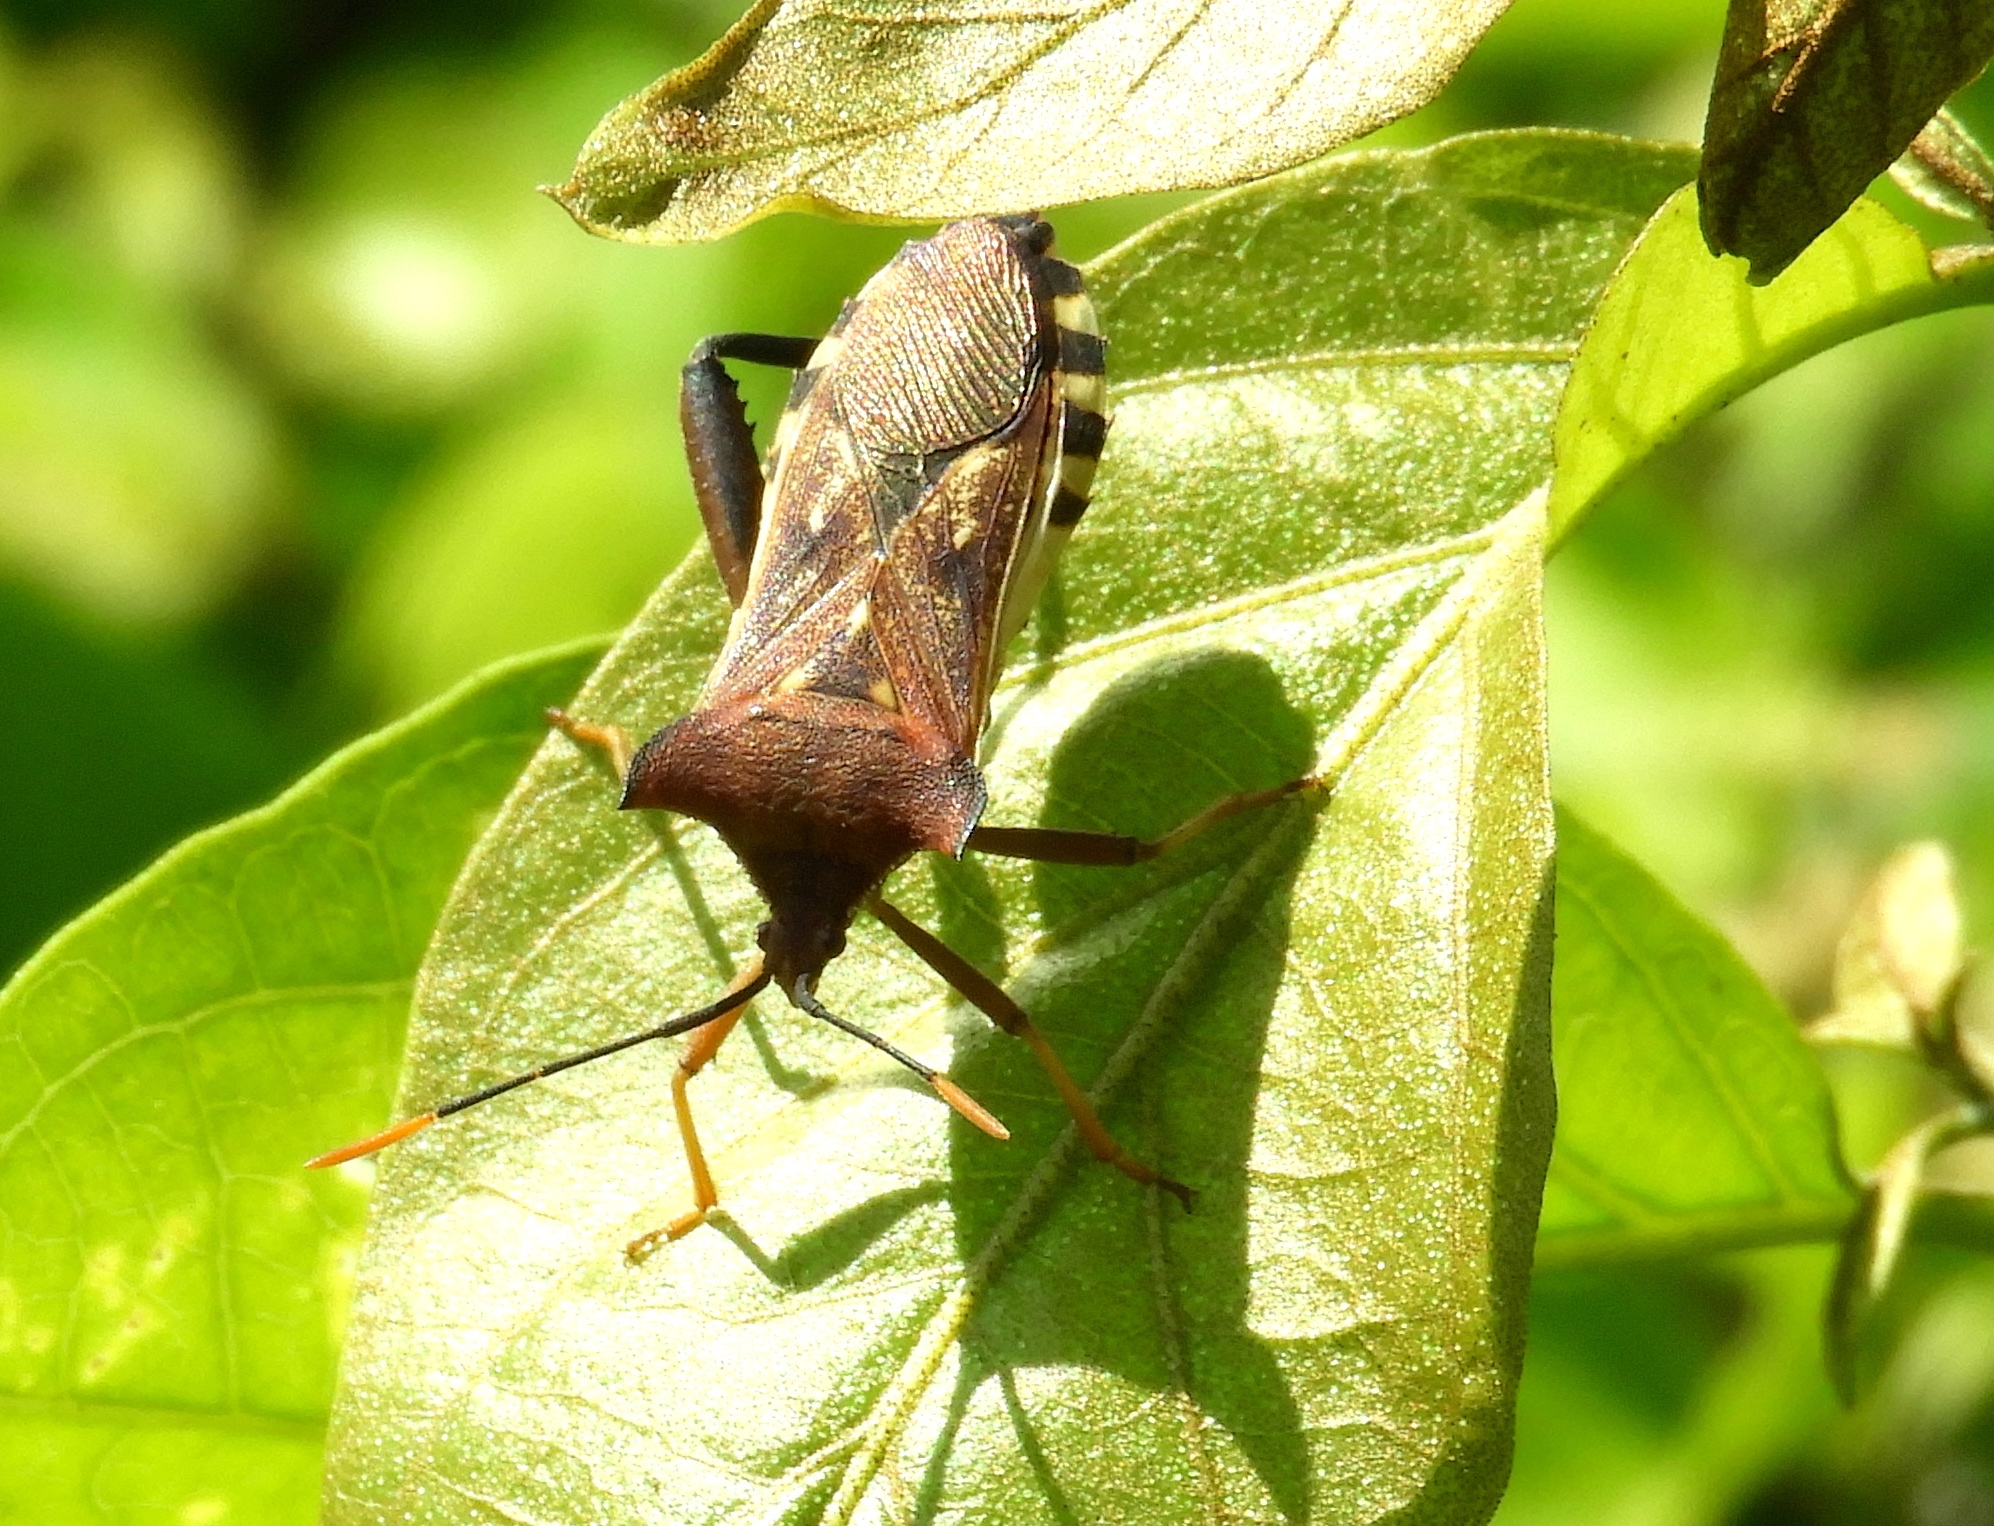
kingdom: Animalia
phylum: Arthropoda
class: Insecta
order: Hemiptera
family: Coreidae
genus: Mozena
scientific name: Mozena
